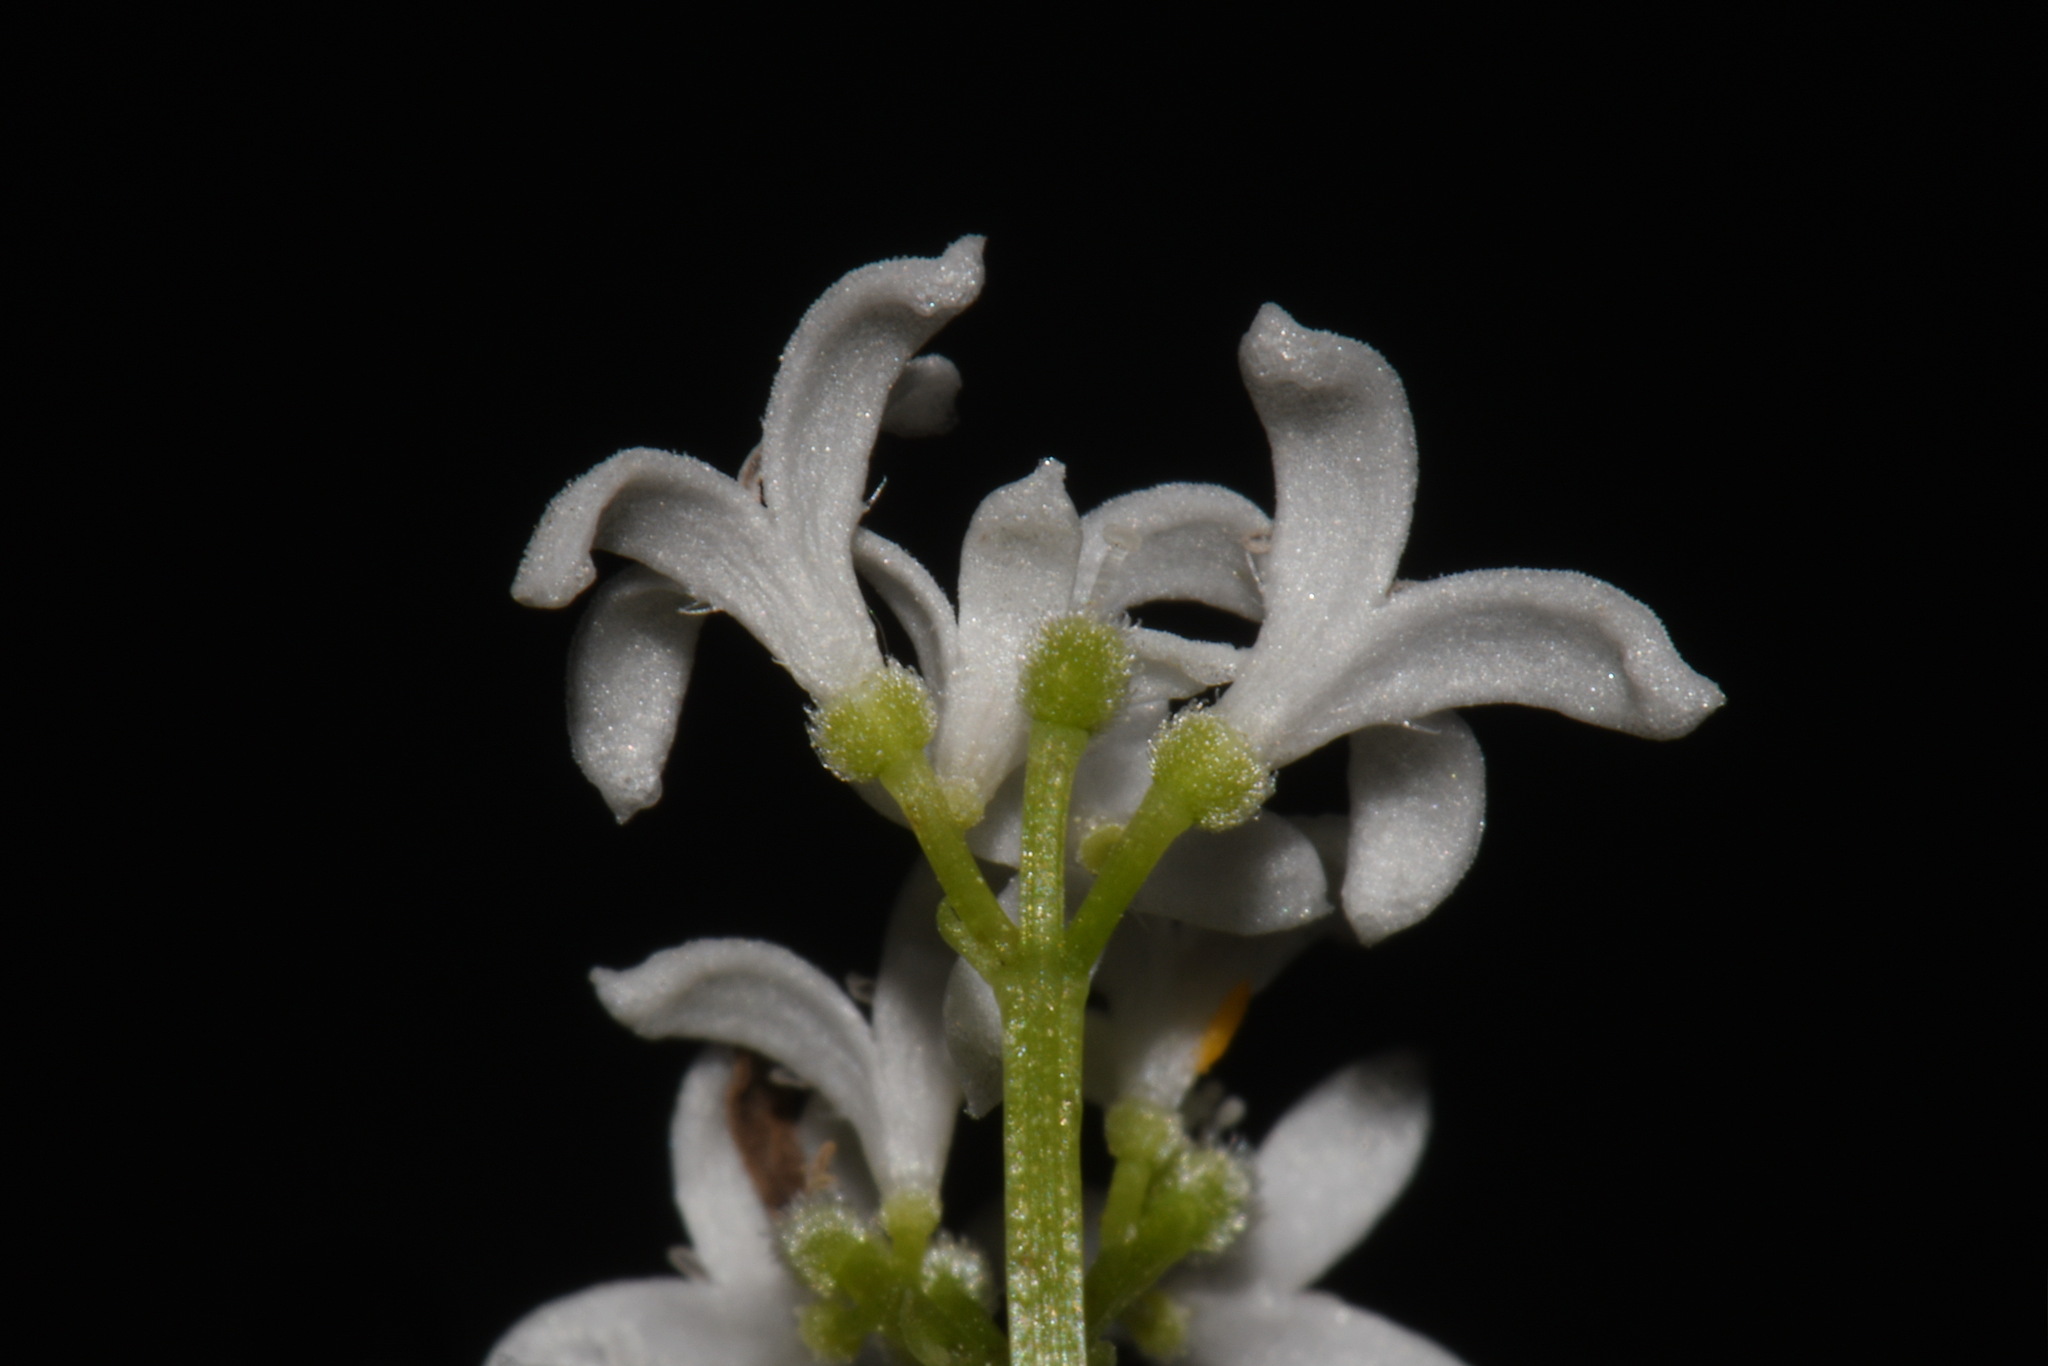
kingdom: Plantae
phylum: Tracheophyta
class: Magnoliopsida
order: Gentianales
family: Rubiaceae
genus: Galium
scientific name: Galium odoratum
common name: Sweet woodruff
